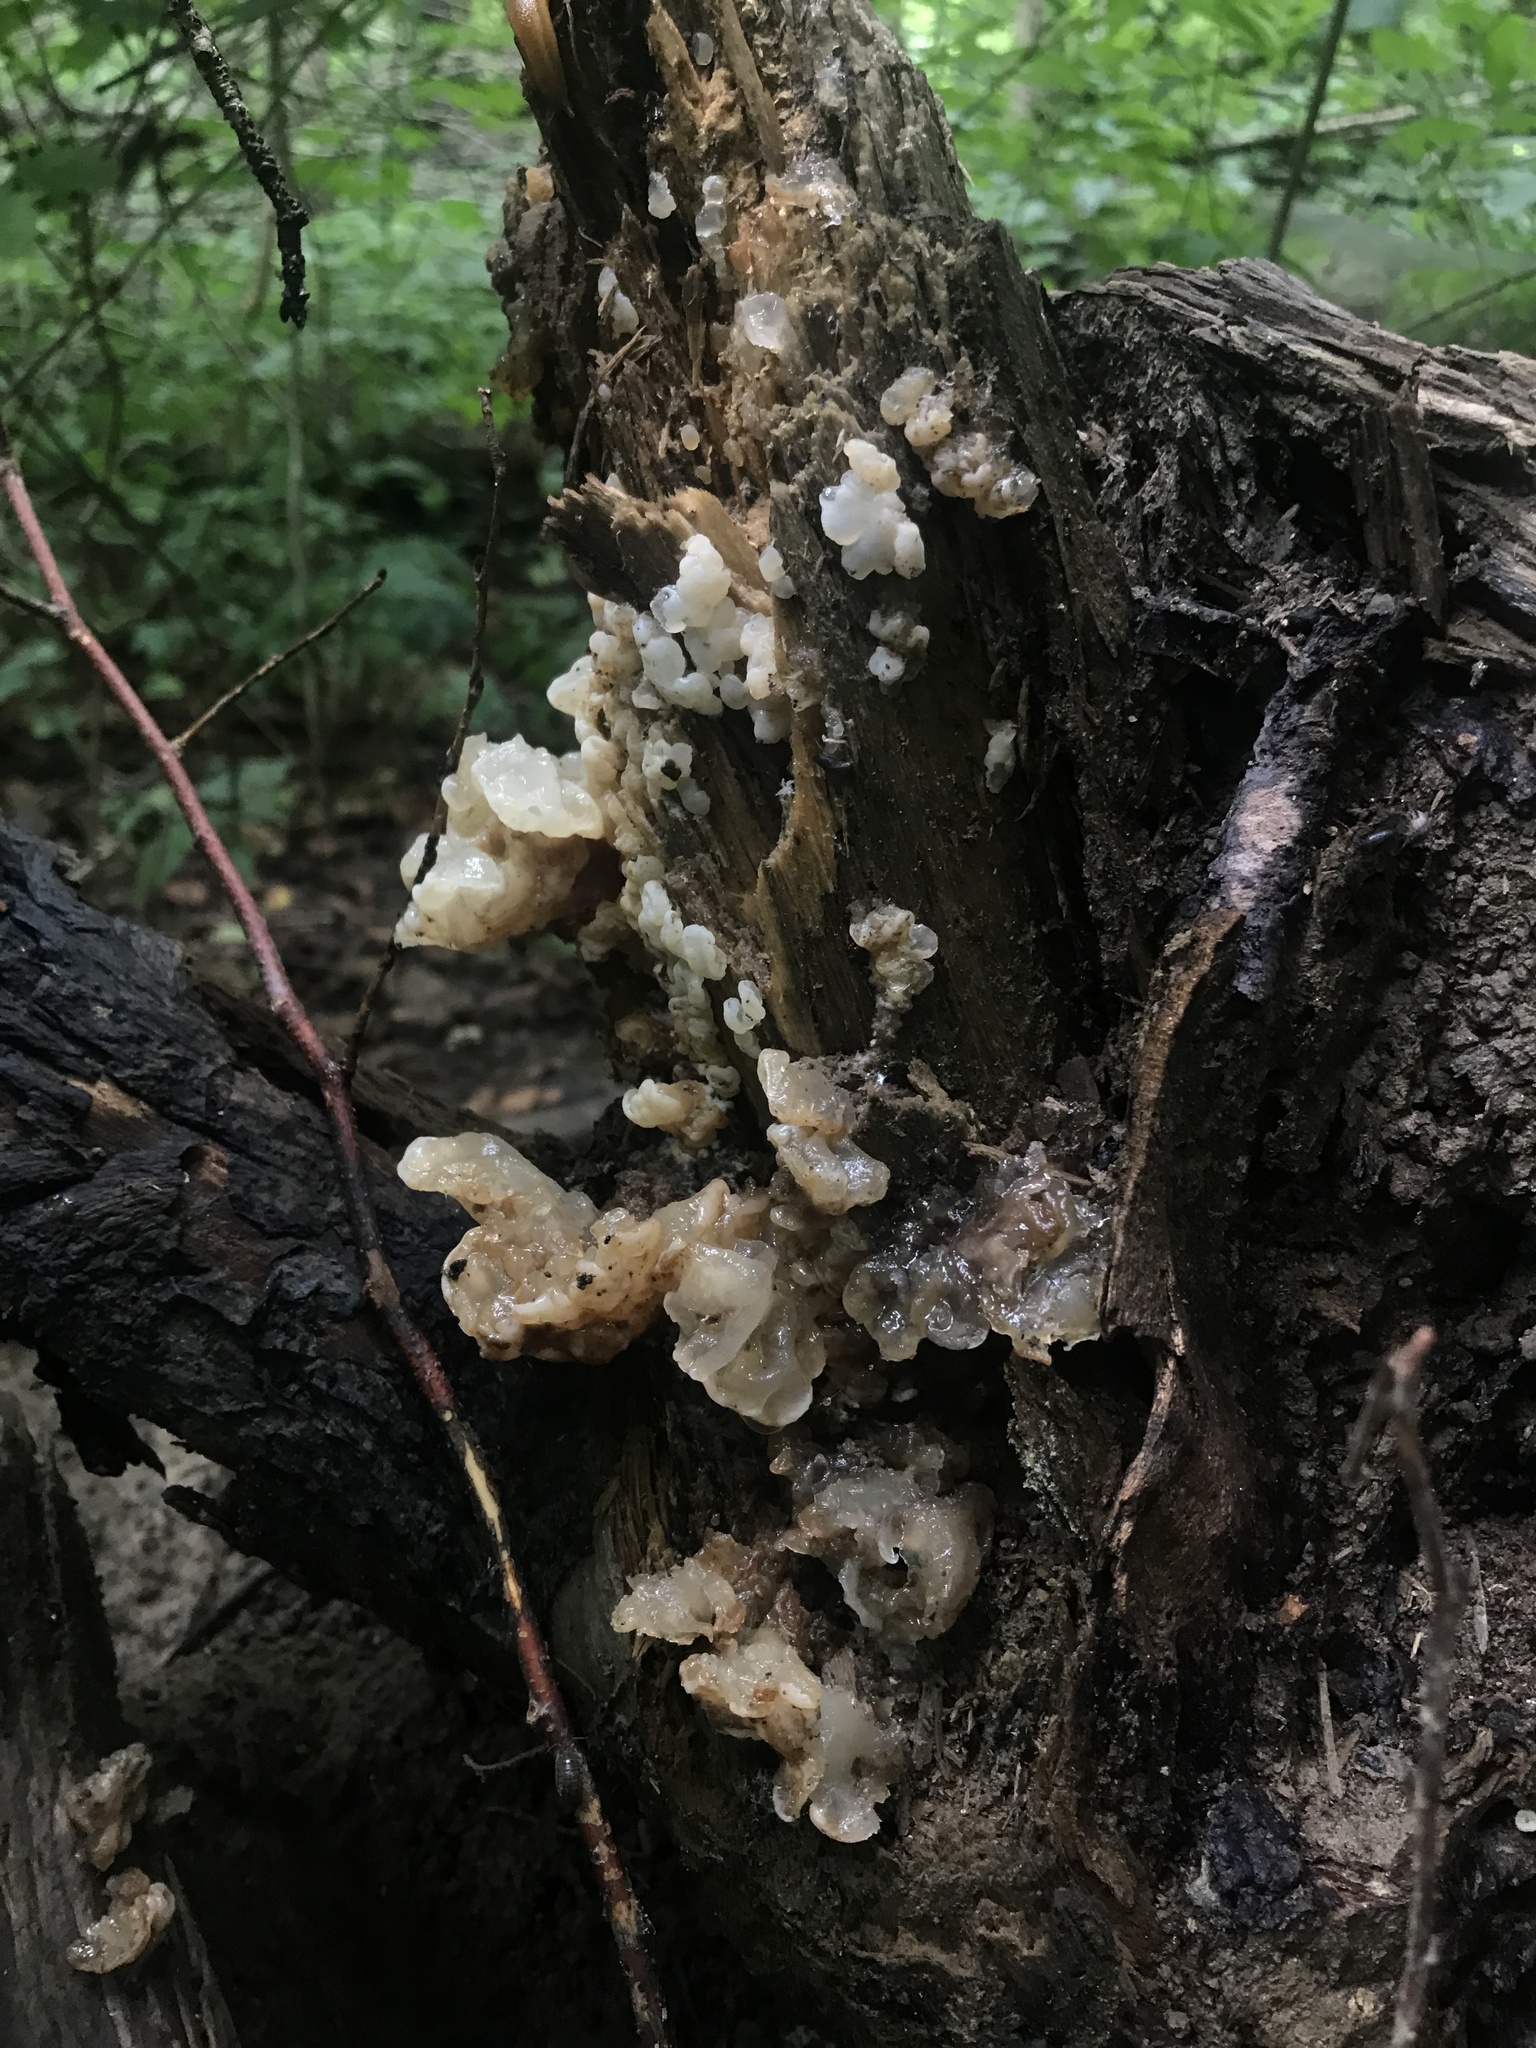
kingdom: Fungi
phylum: Basidiomycota
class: Agaricomycetes
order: Auriculariales
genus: Ductifera
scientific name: Ductifera pululahuana
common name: White jelly fungus
